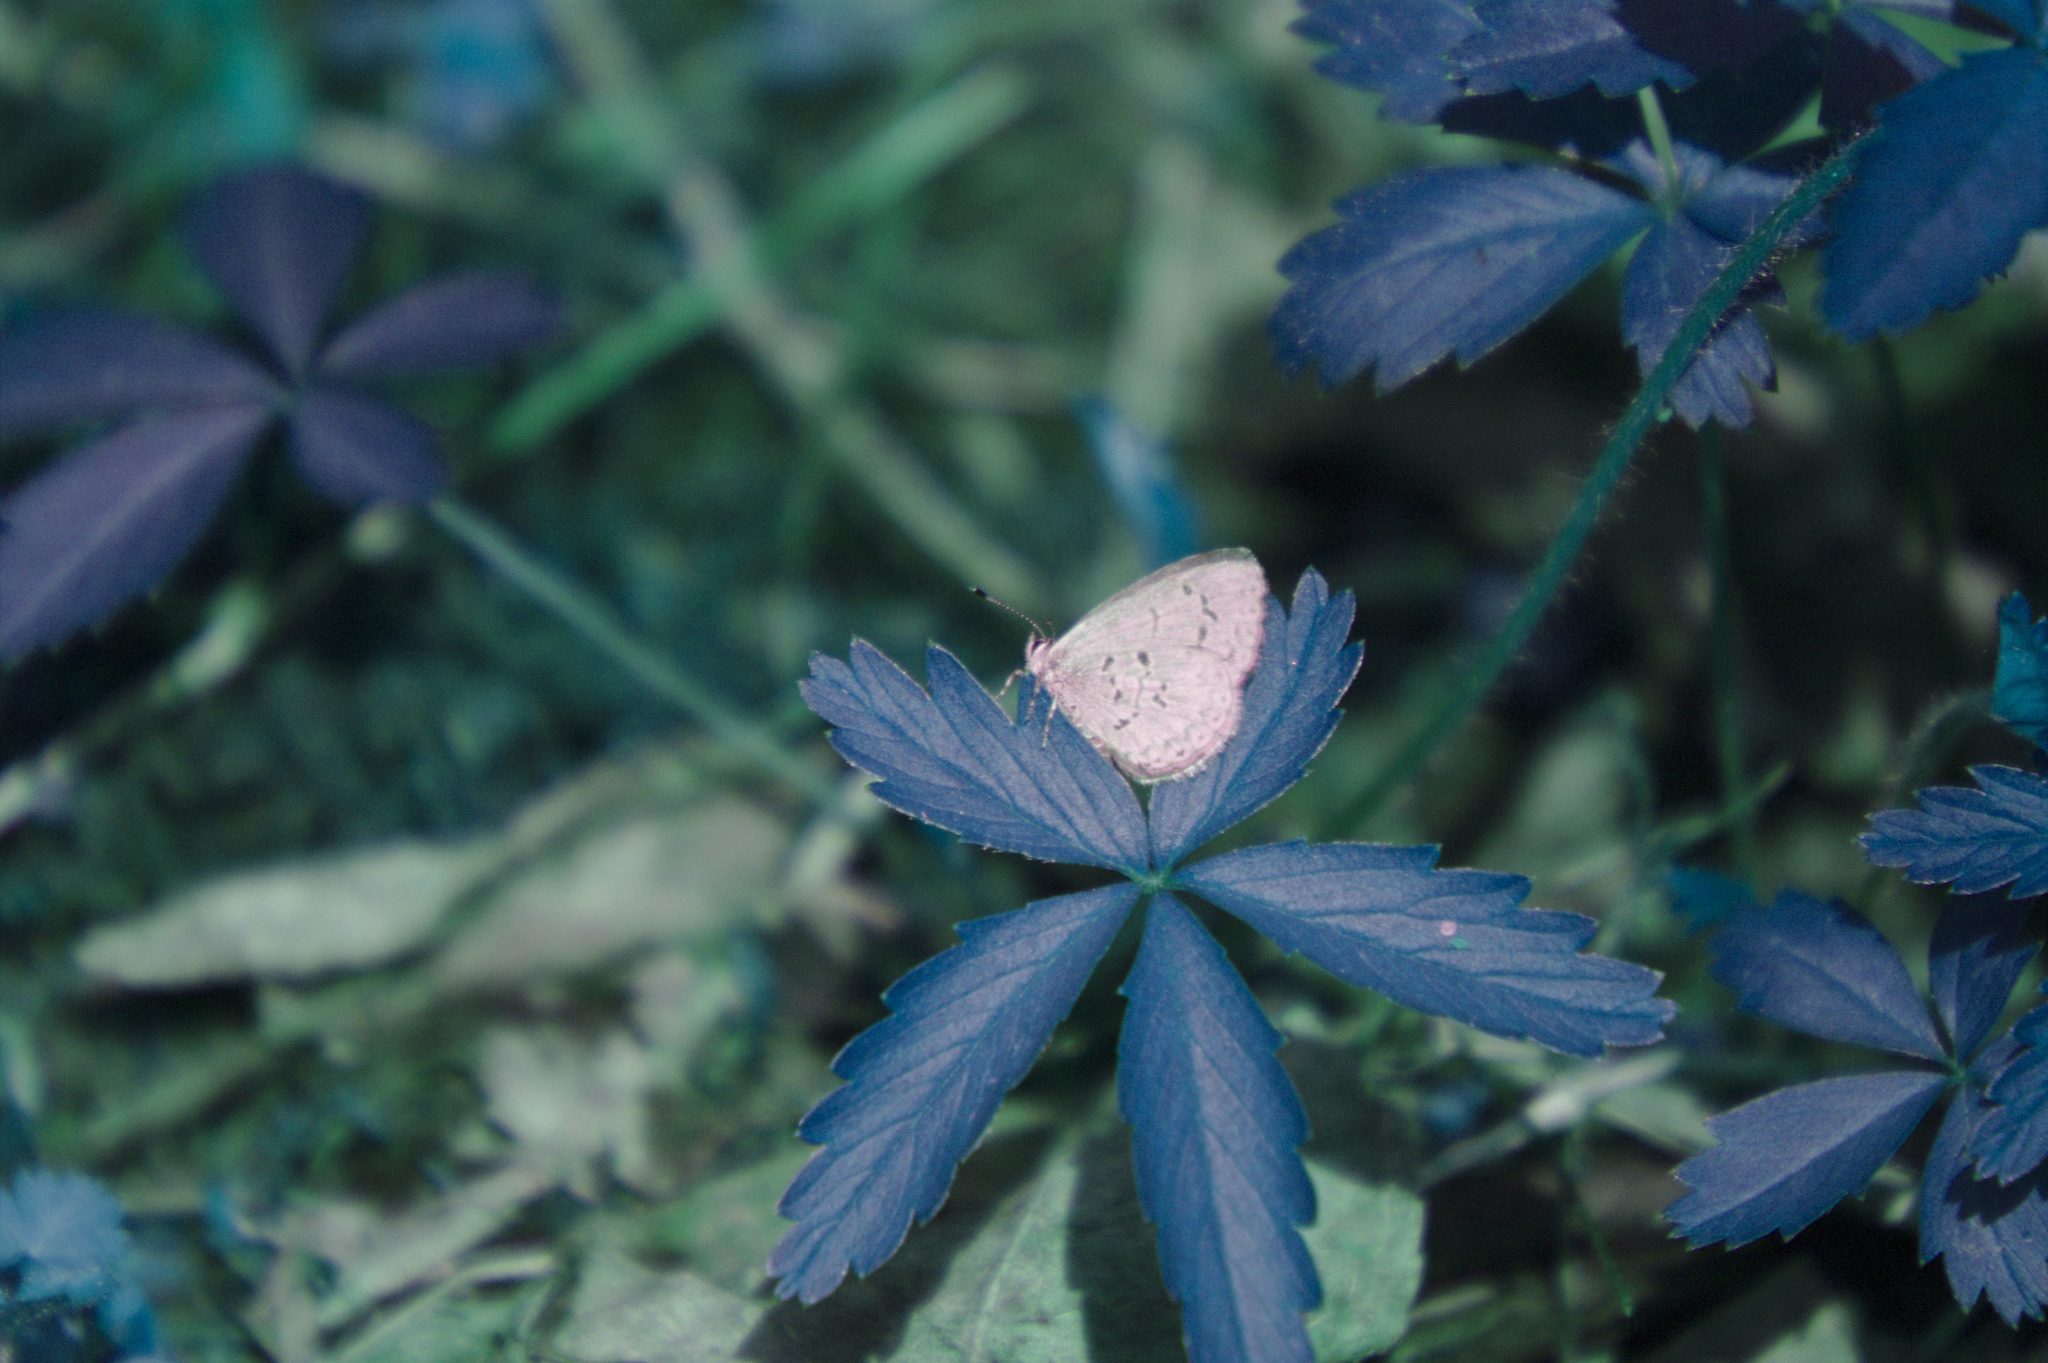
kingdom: Animalia
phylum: Arthropoda
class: Insecta
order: Lepidoptera
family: Lycaenidae
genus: Celastrina
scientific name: Celastrina lucia
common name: Lucia azure
